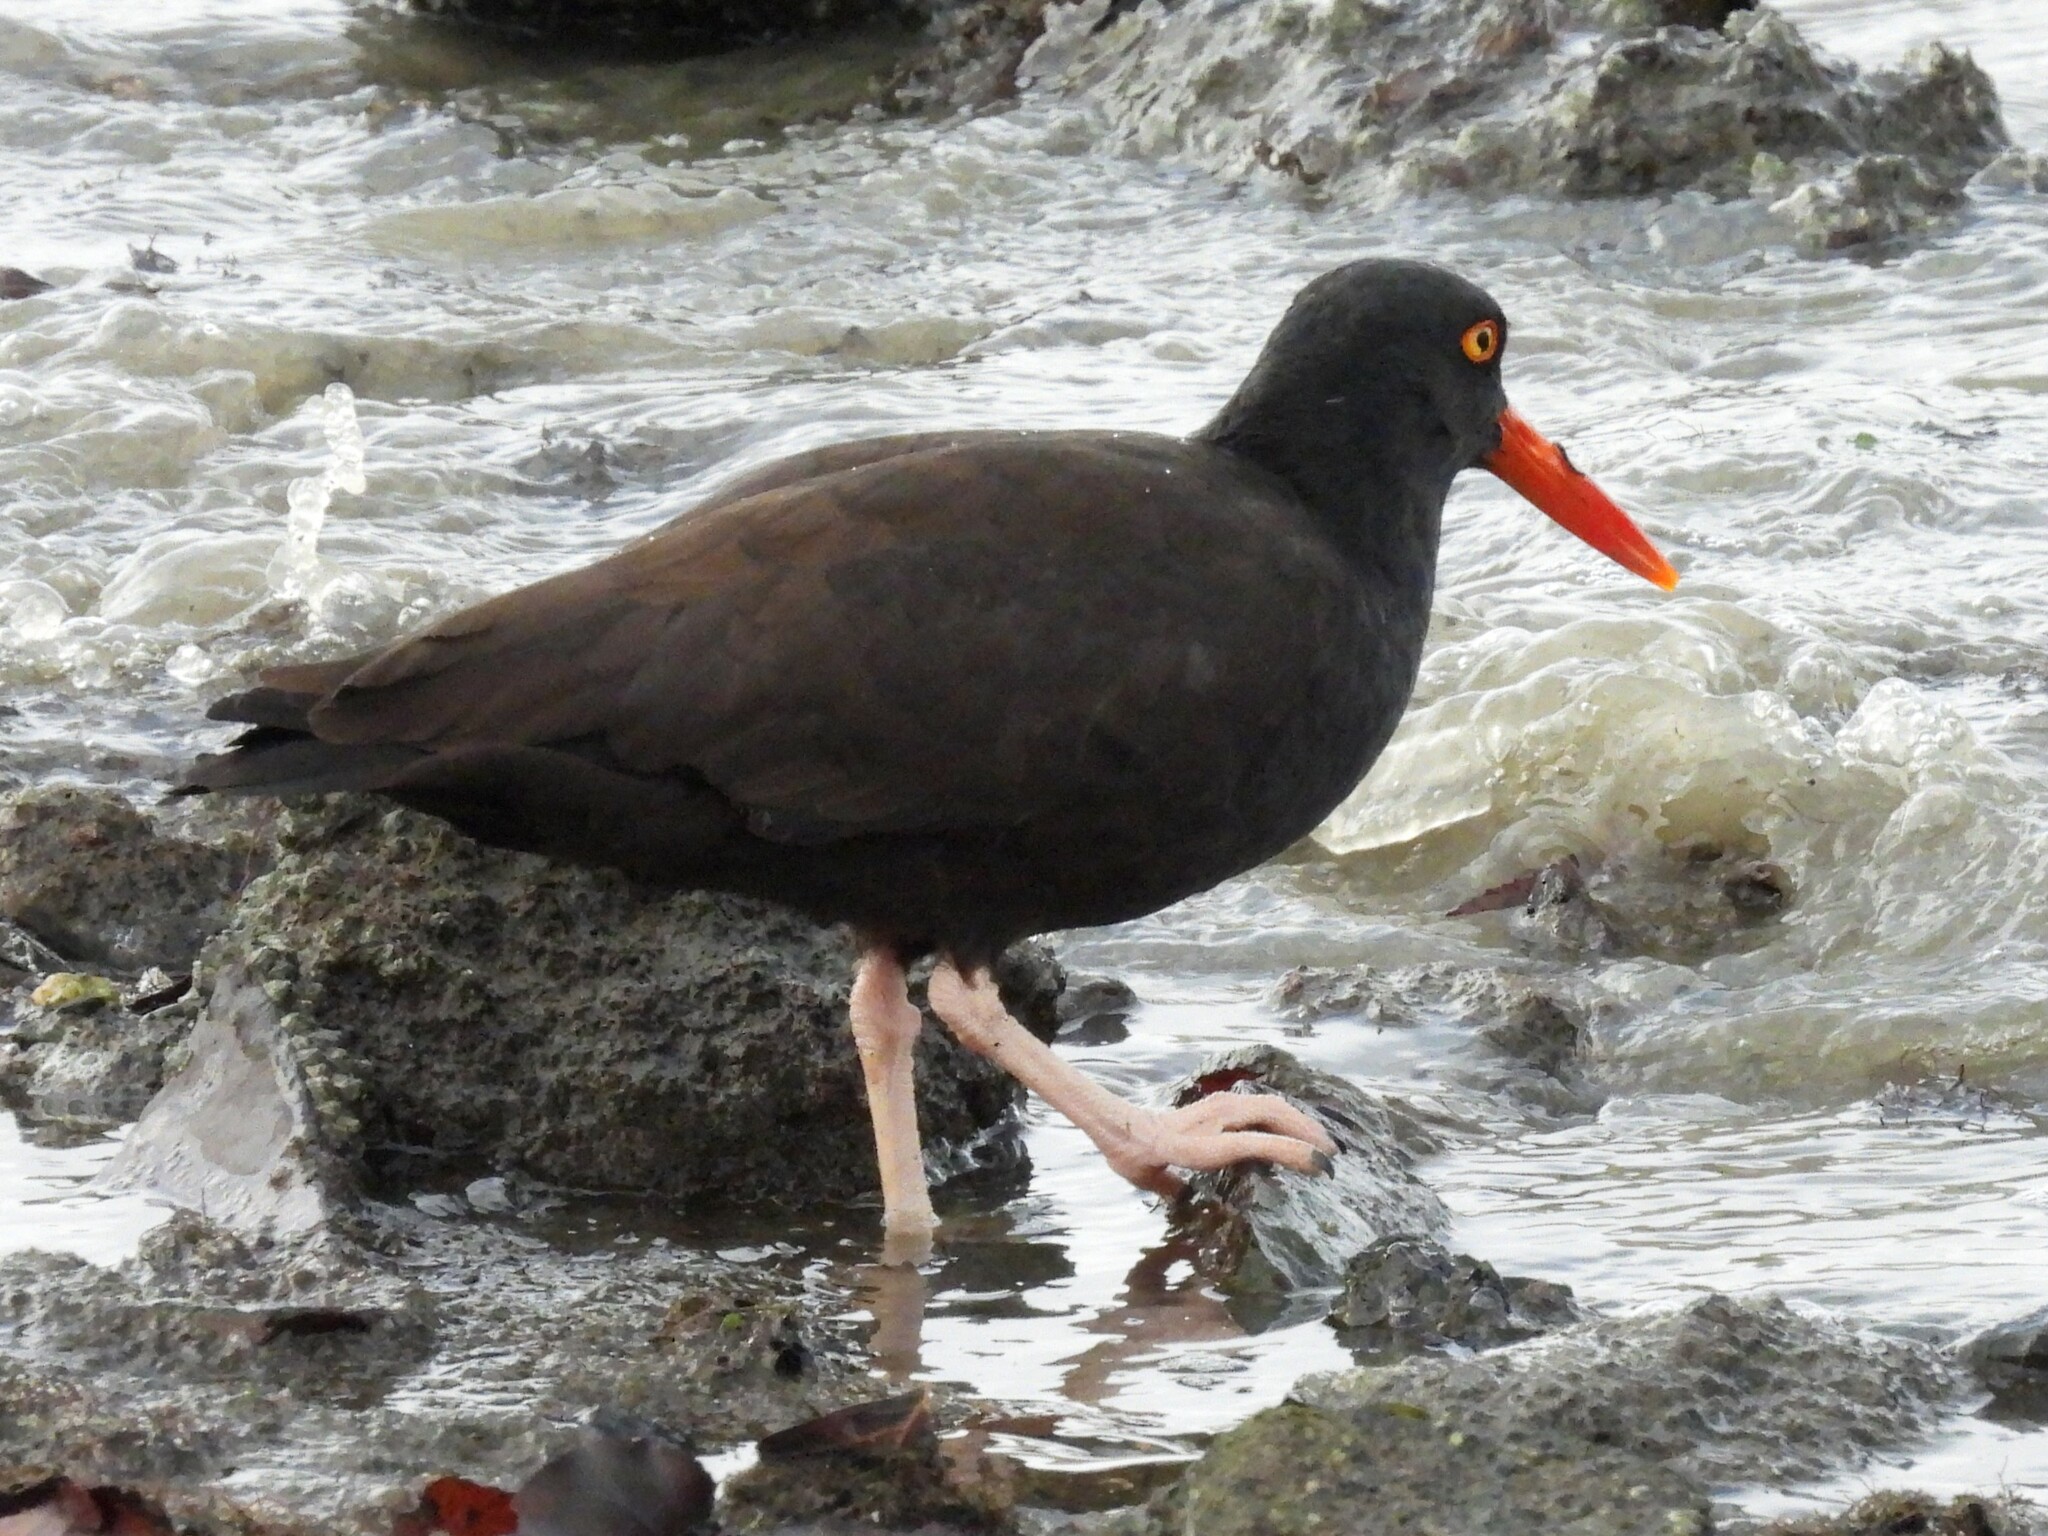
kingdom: Animalia
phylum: Chordata
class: Aves
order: Charadriiformes
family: Haematopodidae
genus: Haematopus
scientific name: Haematopus bachmani
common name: Black oystercatcher
